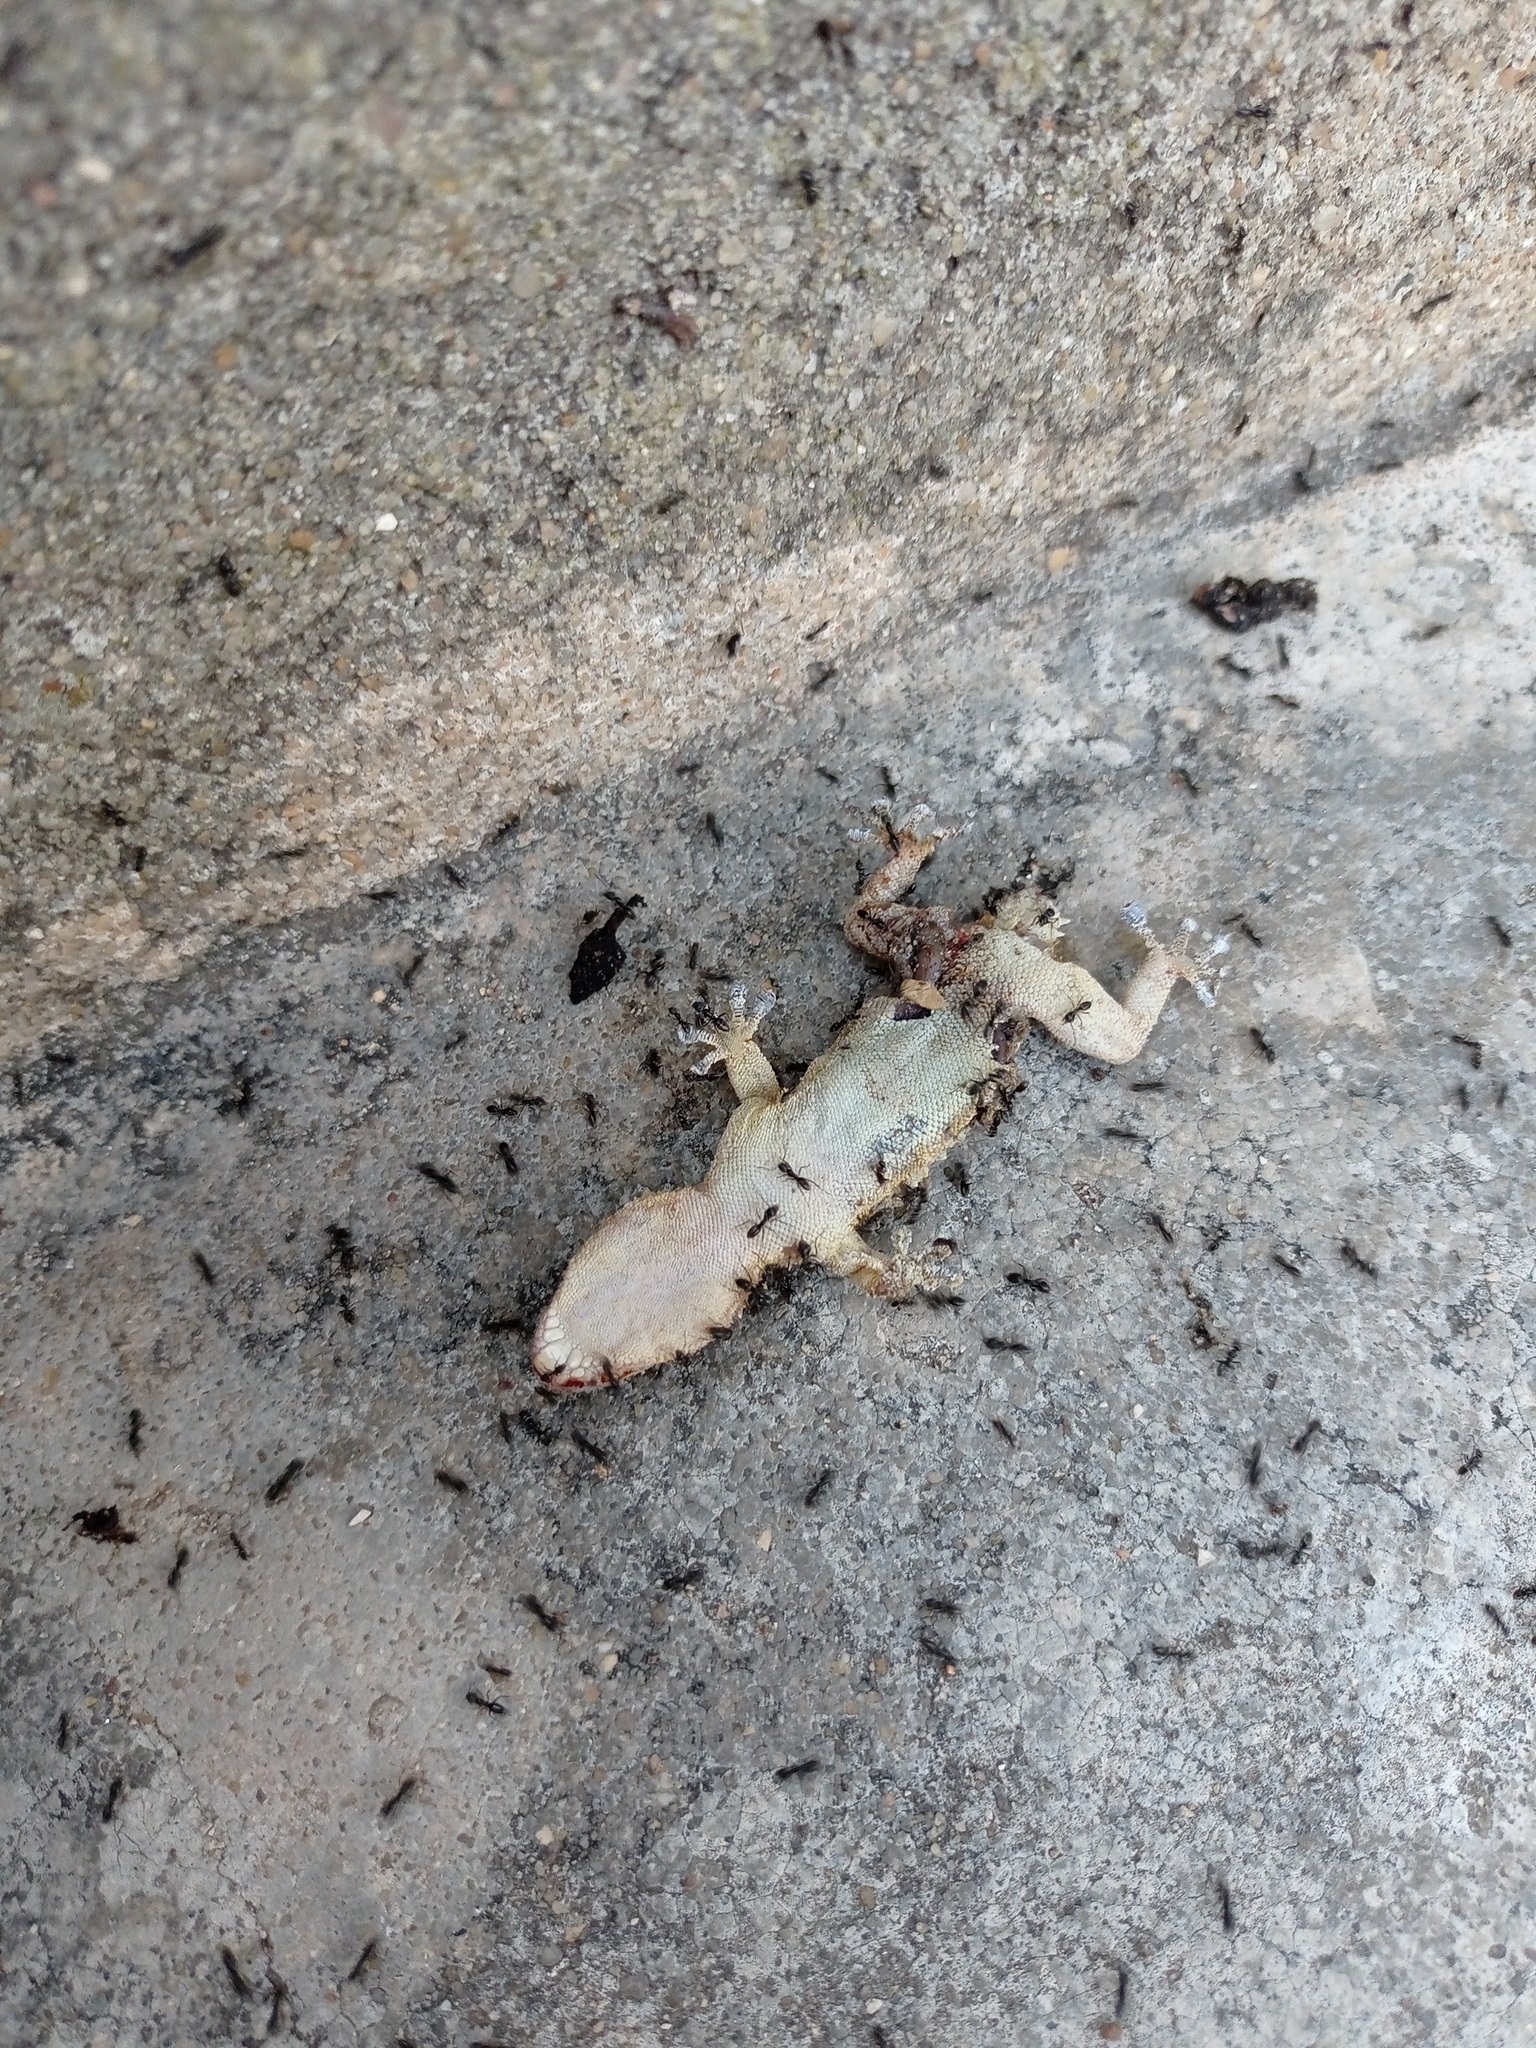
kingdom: Animalia
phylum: Chordata
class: Squamata
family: Phyllodactylidae
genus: Tarentola
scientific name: Tarentola mauritanica
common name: Moorish gecko
